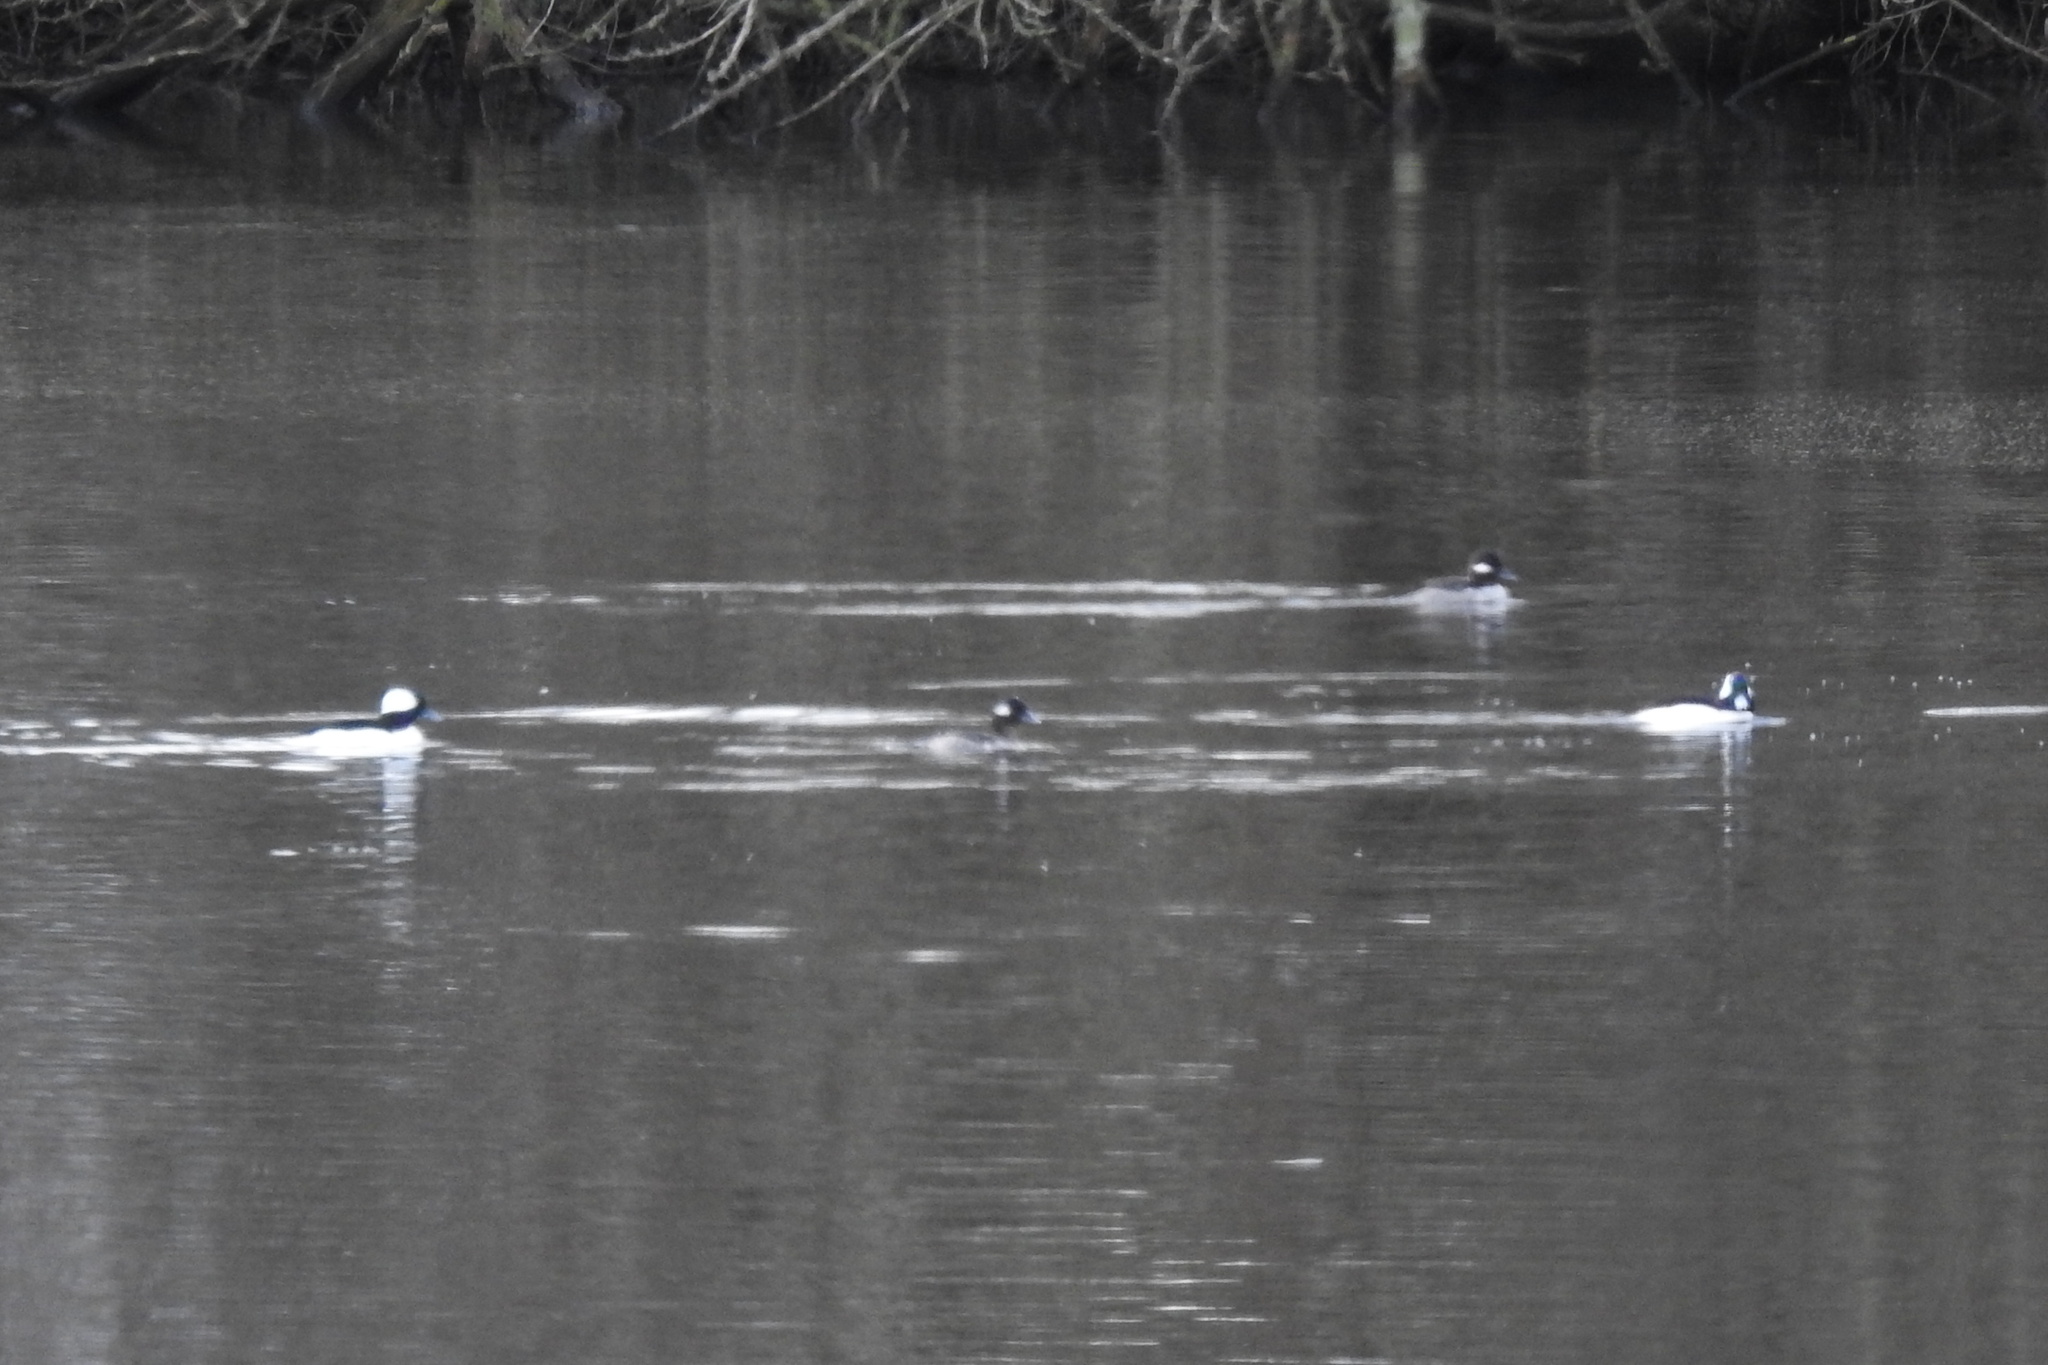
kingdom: Animalia
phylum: Chordata
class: Aves
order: Anseriformes
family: Anatidae
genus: Bucephala
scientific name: Bucephala albeola
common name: Bufflehead
